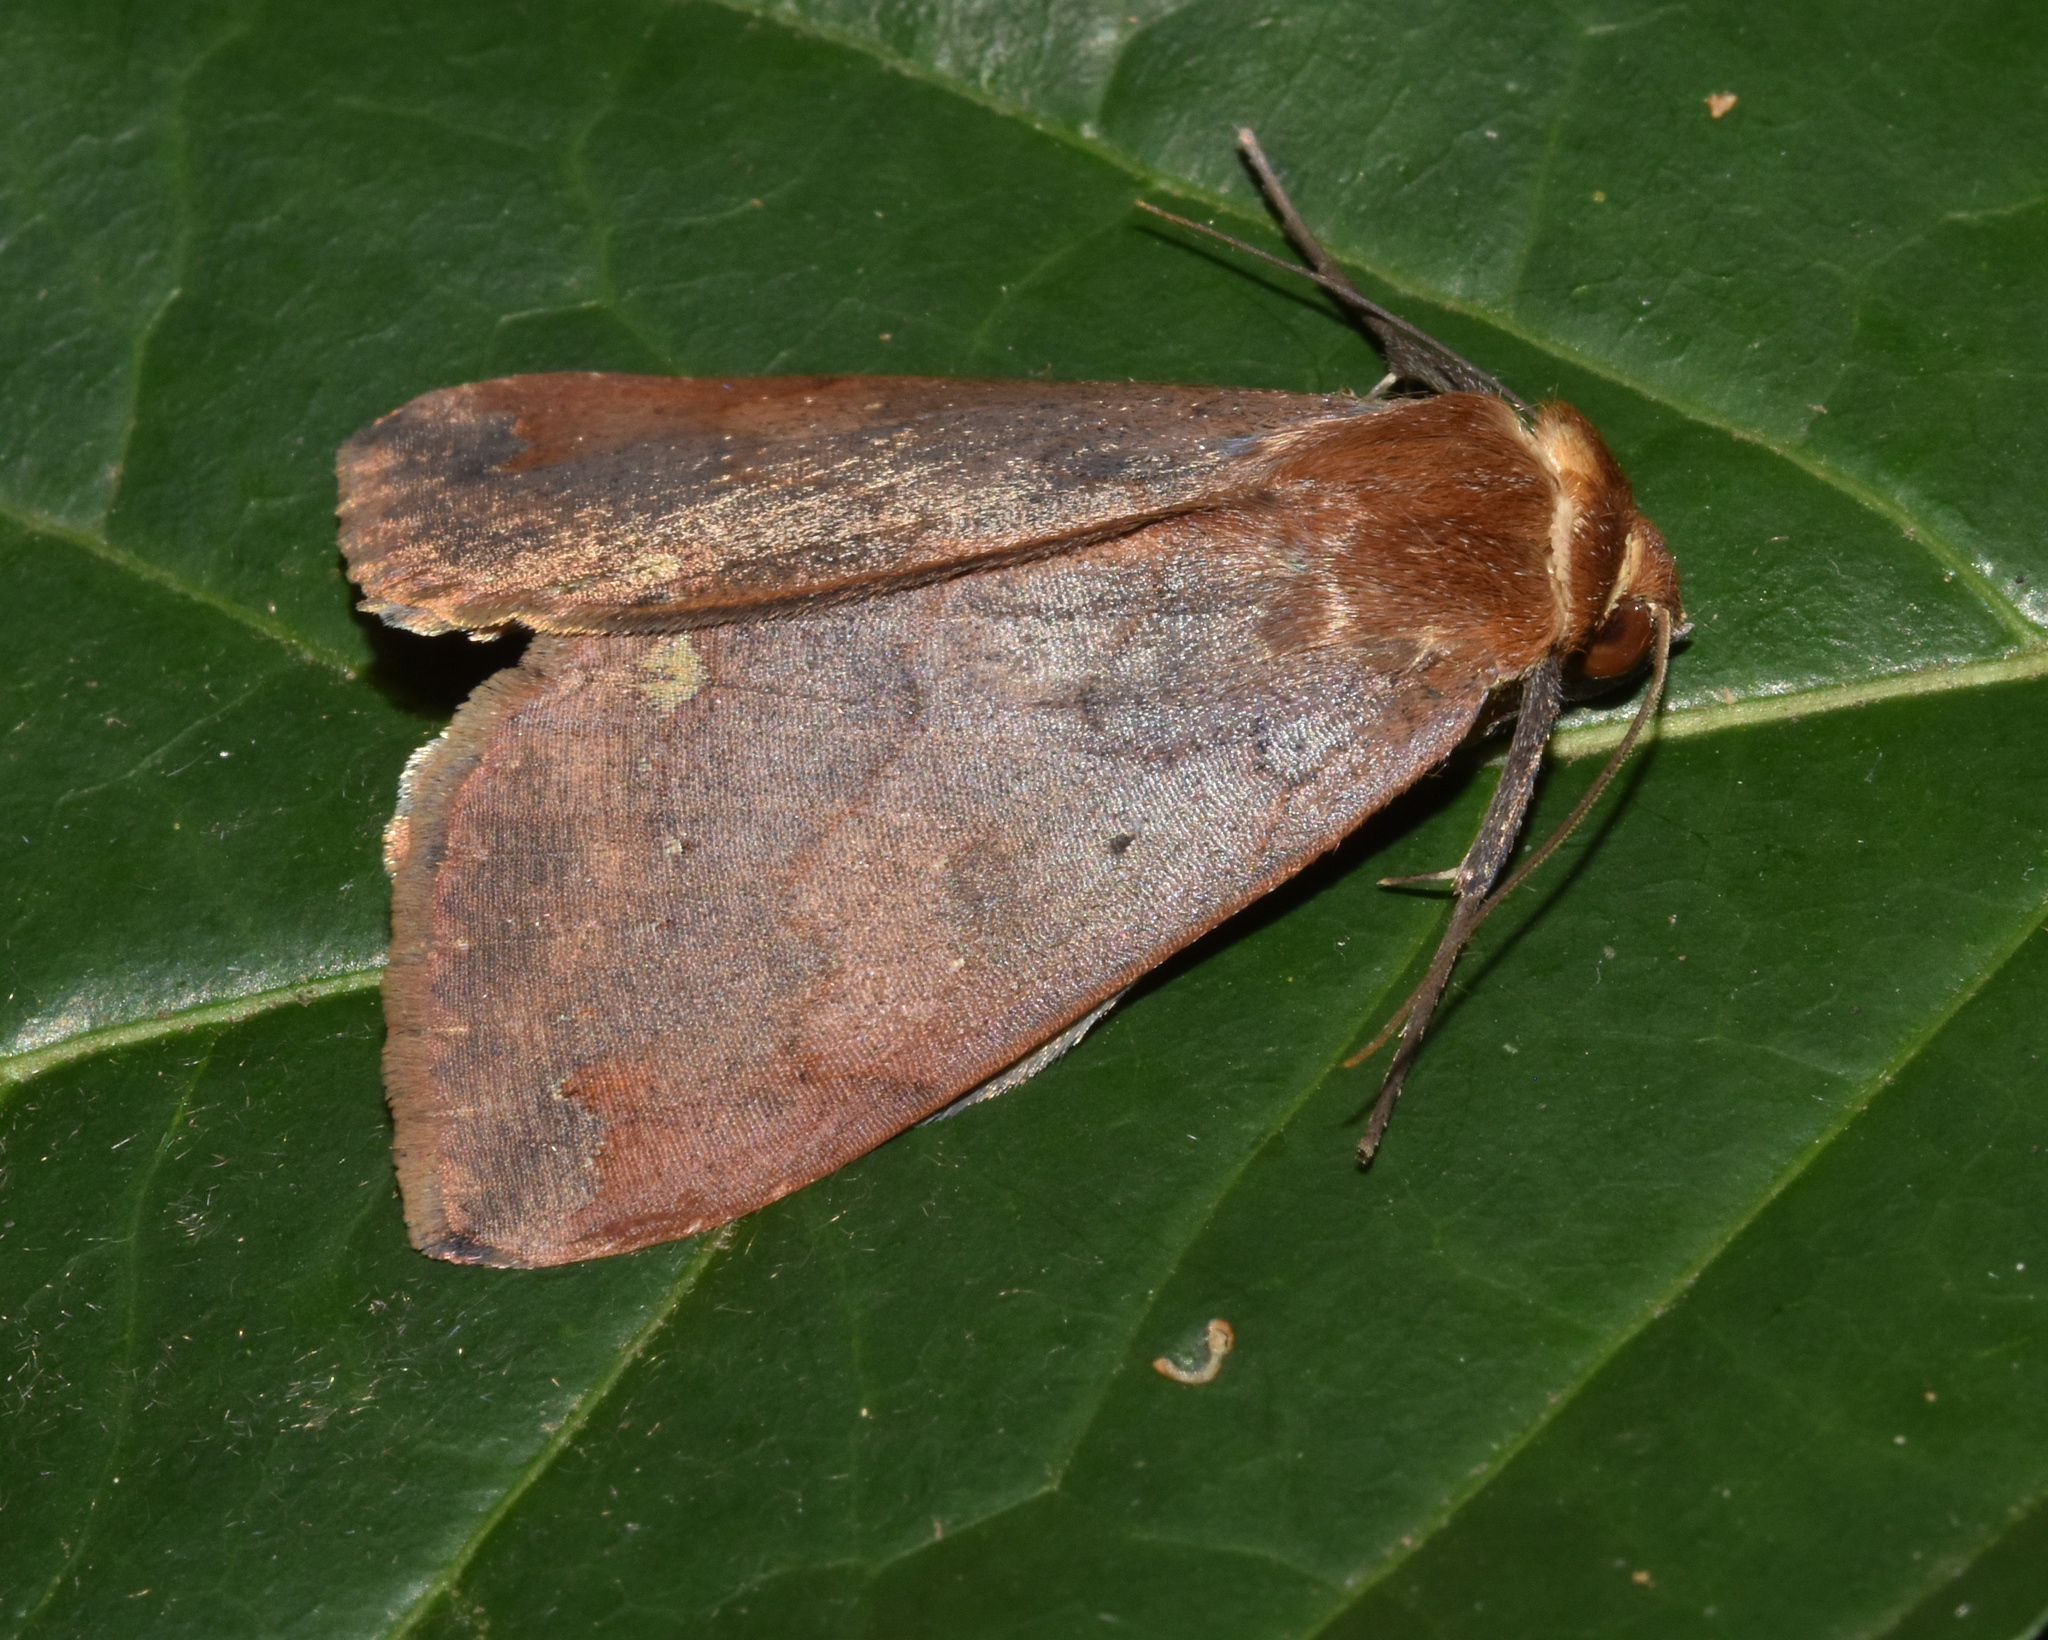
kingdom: Animalia
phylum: Arthropoda
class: Insecta
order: Lepidoptera
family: Erebidae
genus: Ophiusa
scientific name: Ophiusa tumiditermina
